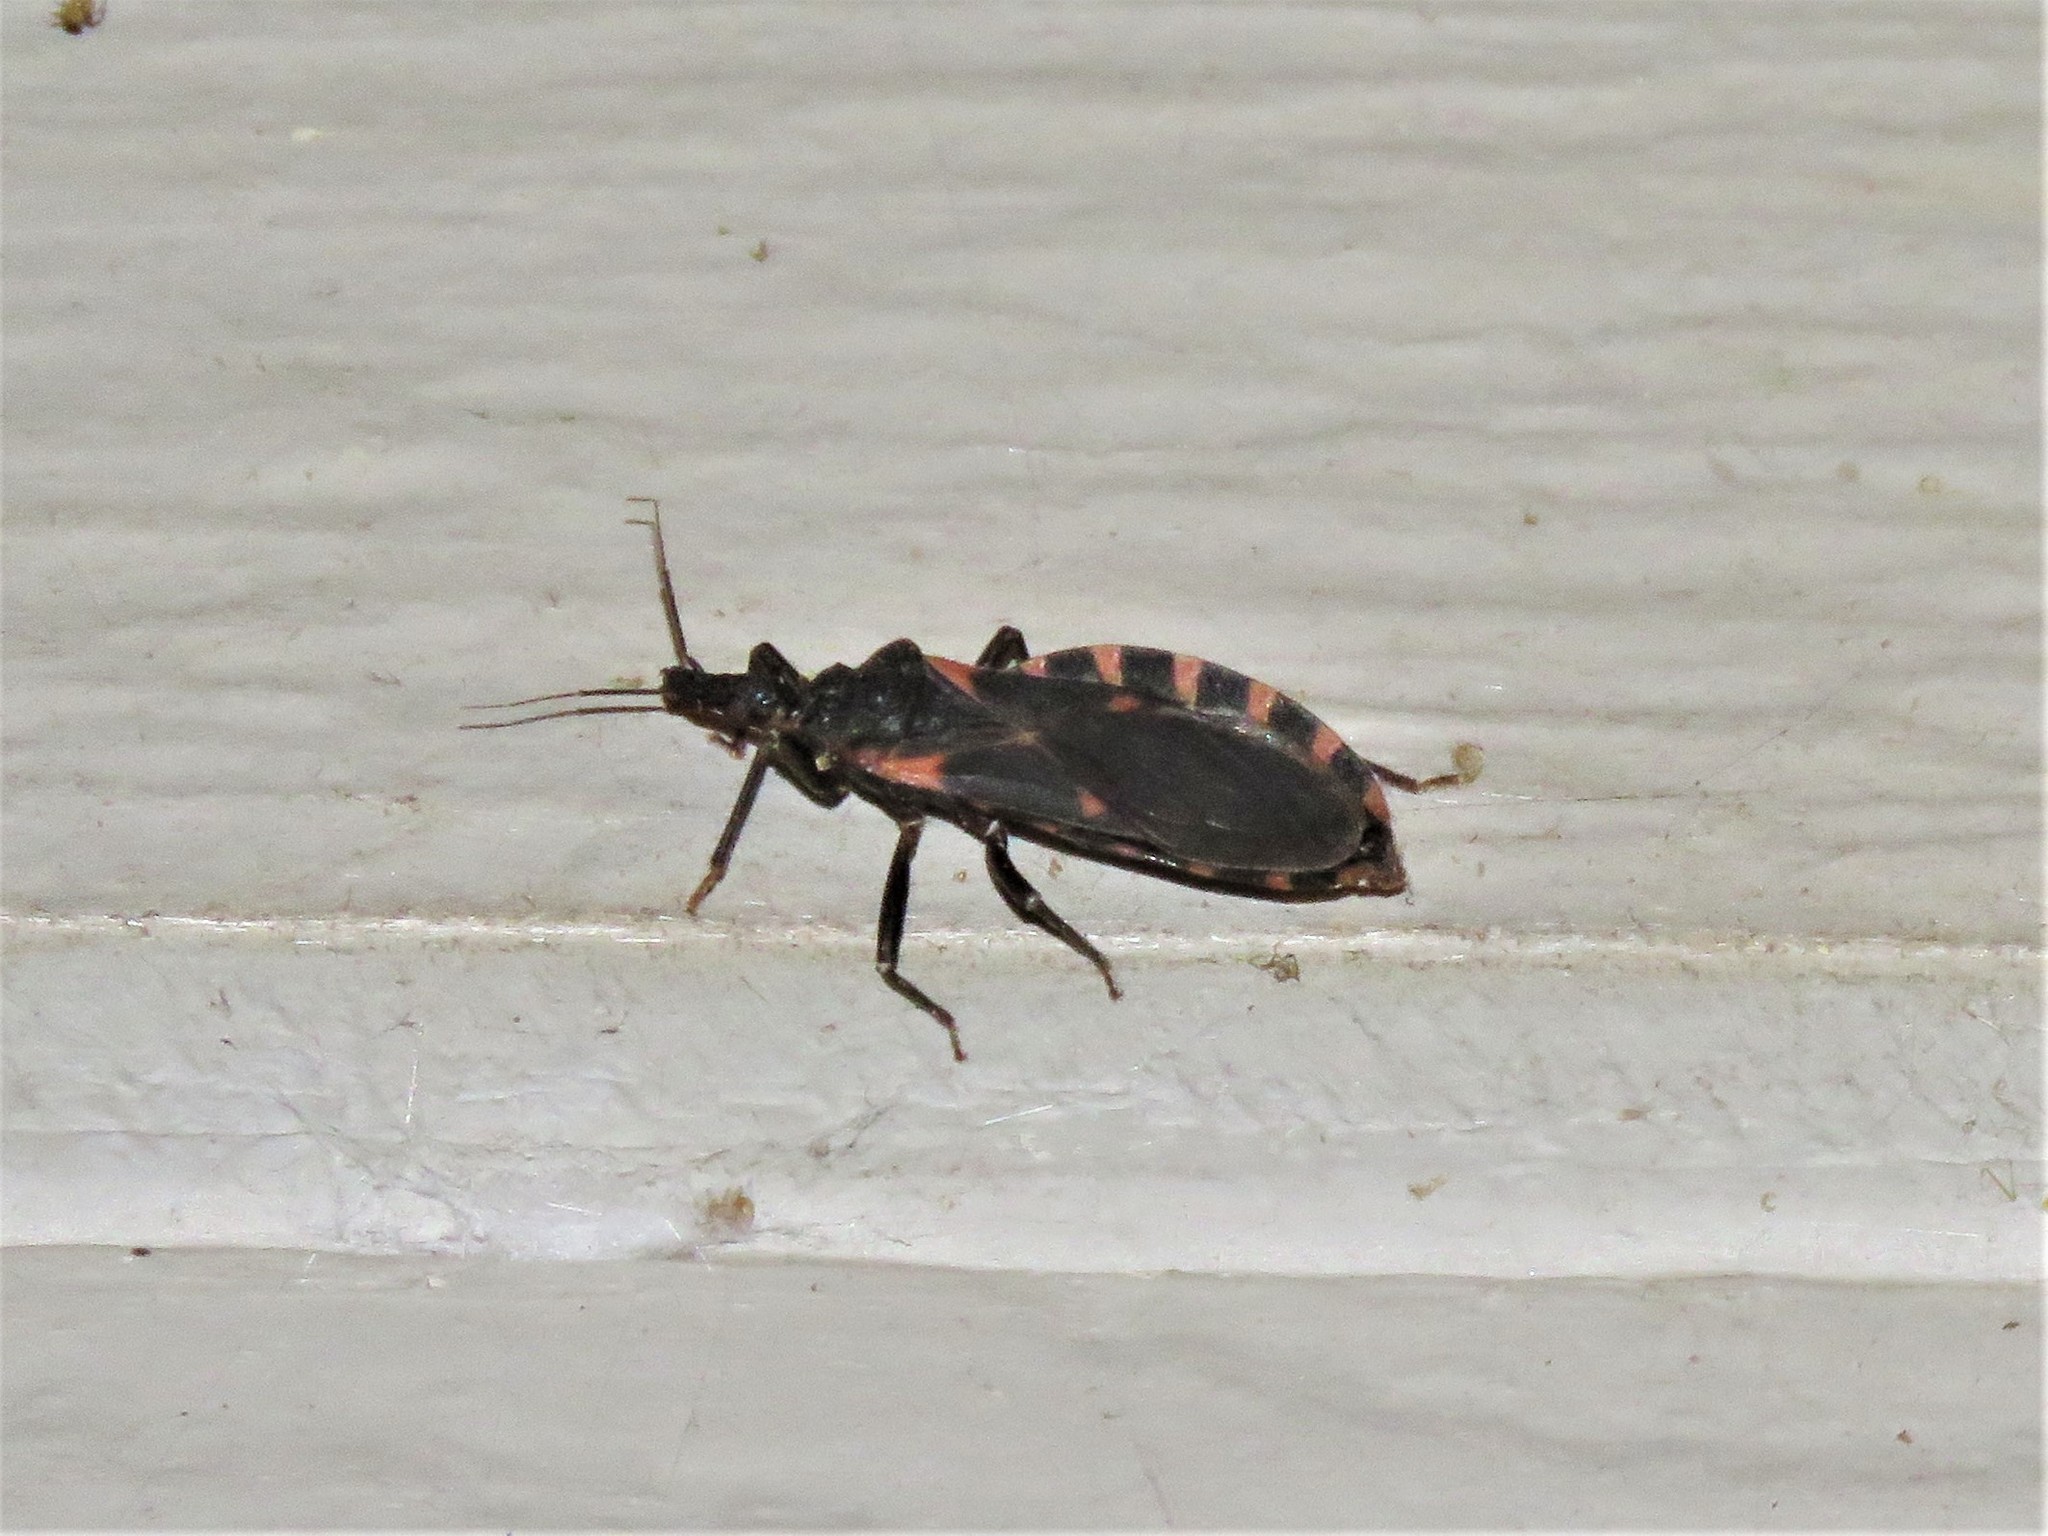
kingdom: Animalia
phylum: Arthropoda
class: Insecta
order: Hemiptera
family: Reduviidae
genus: Triatoma
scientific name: Triatoma sanguisuga
